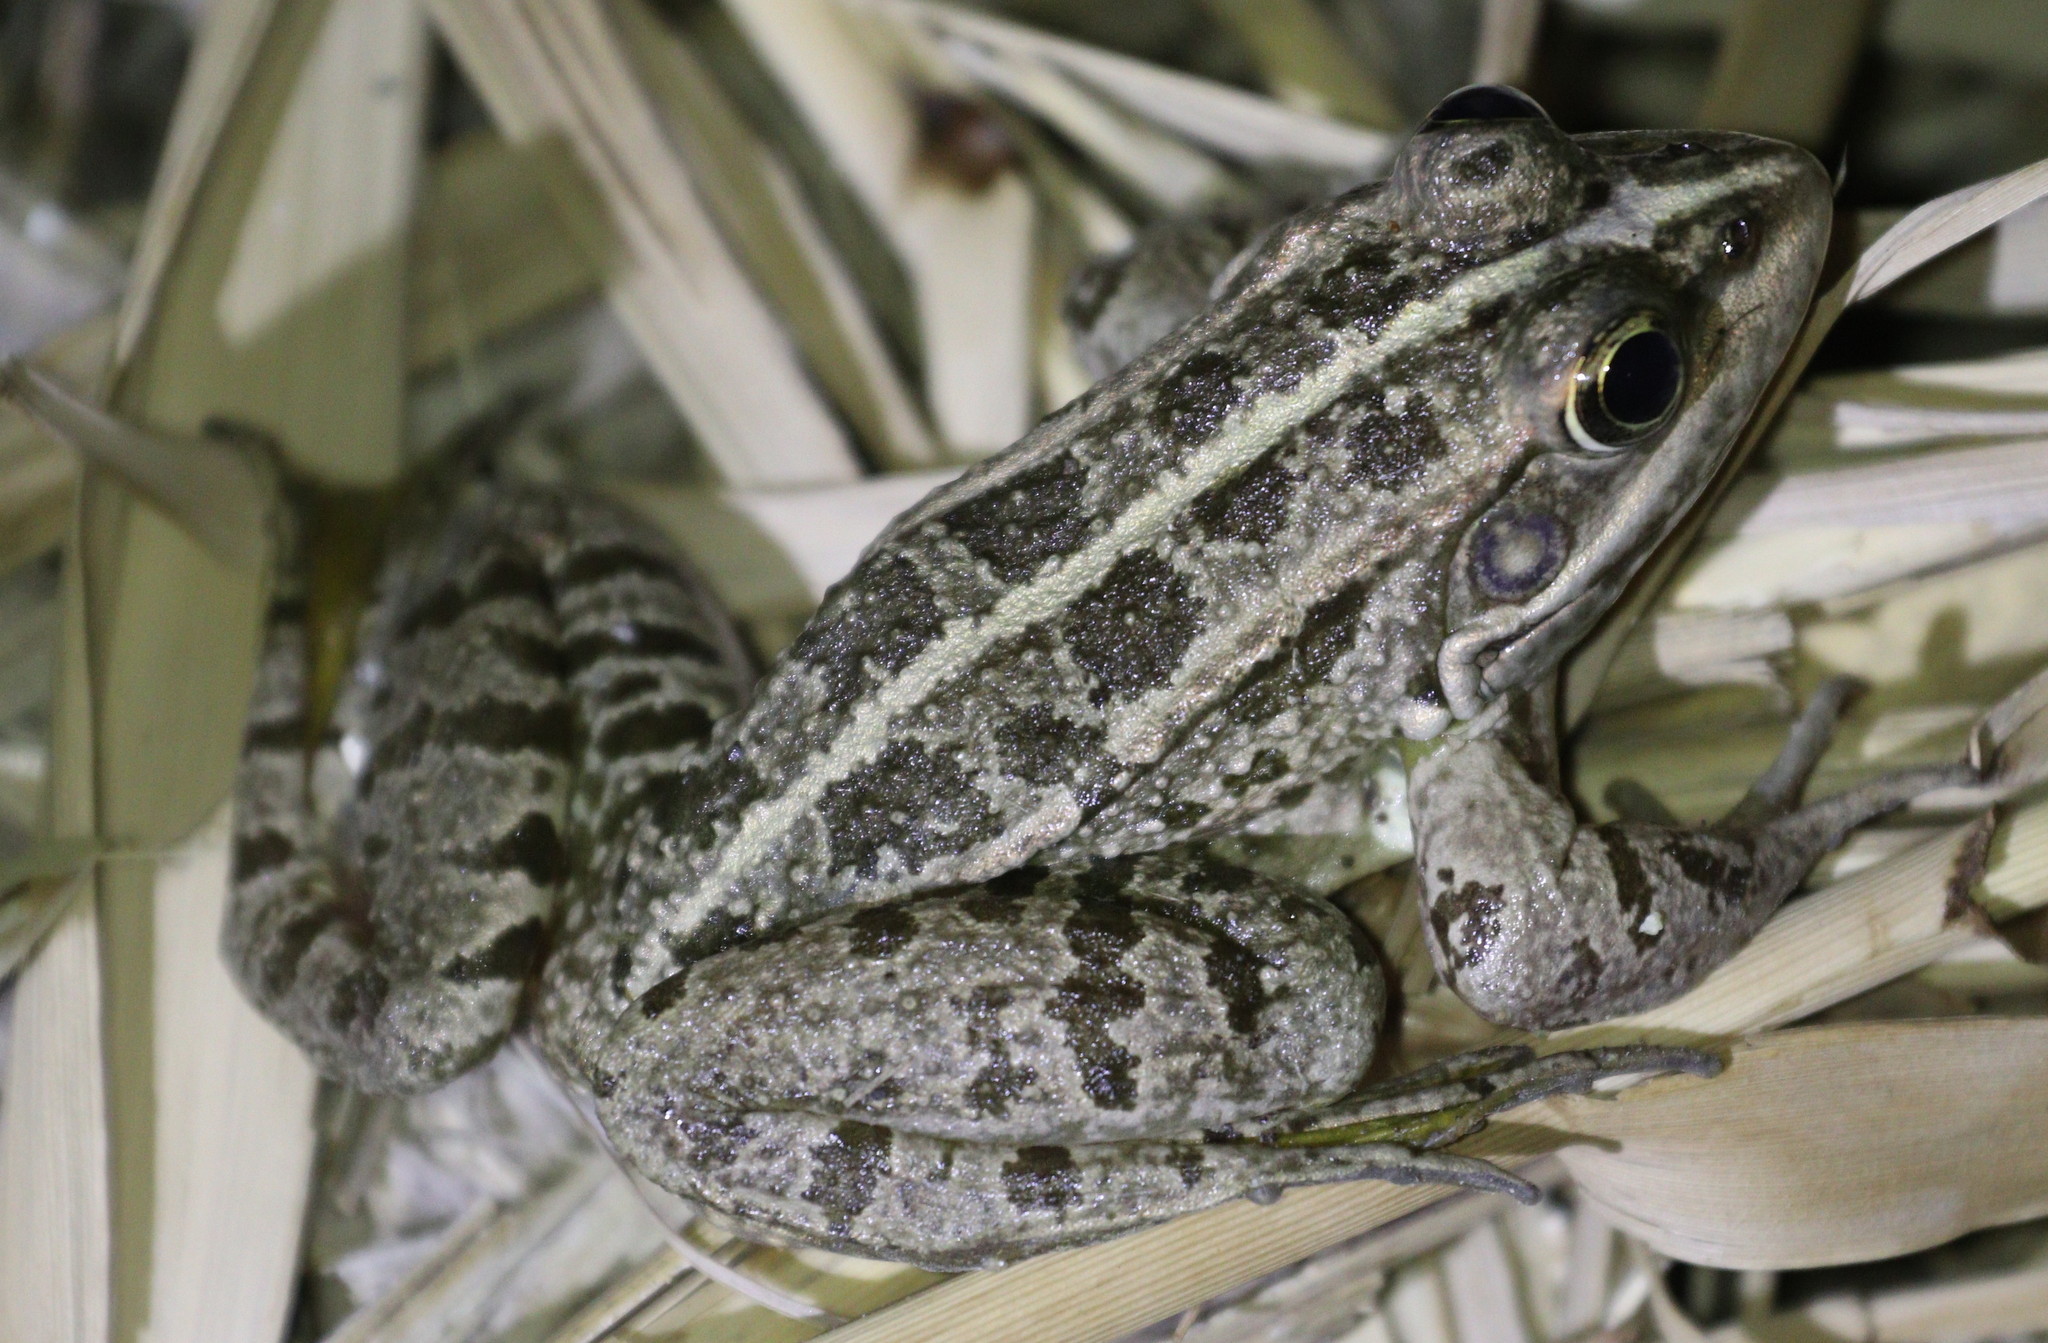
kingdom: Animalia
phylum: Chordata
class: Amphibia
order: Anura
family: Ranidae
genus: Pelophylax
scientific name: Pelophylax ridibundus
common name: Marsh frog
